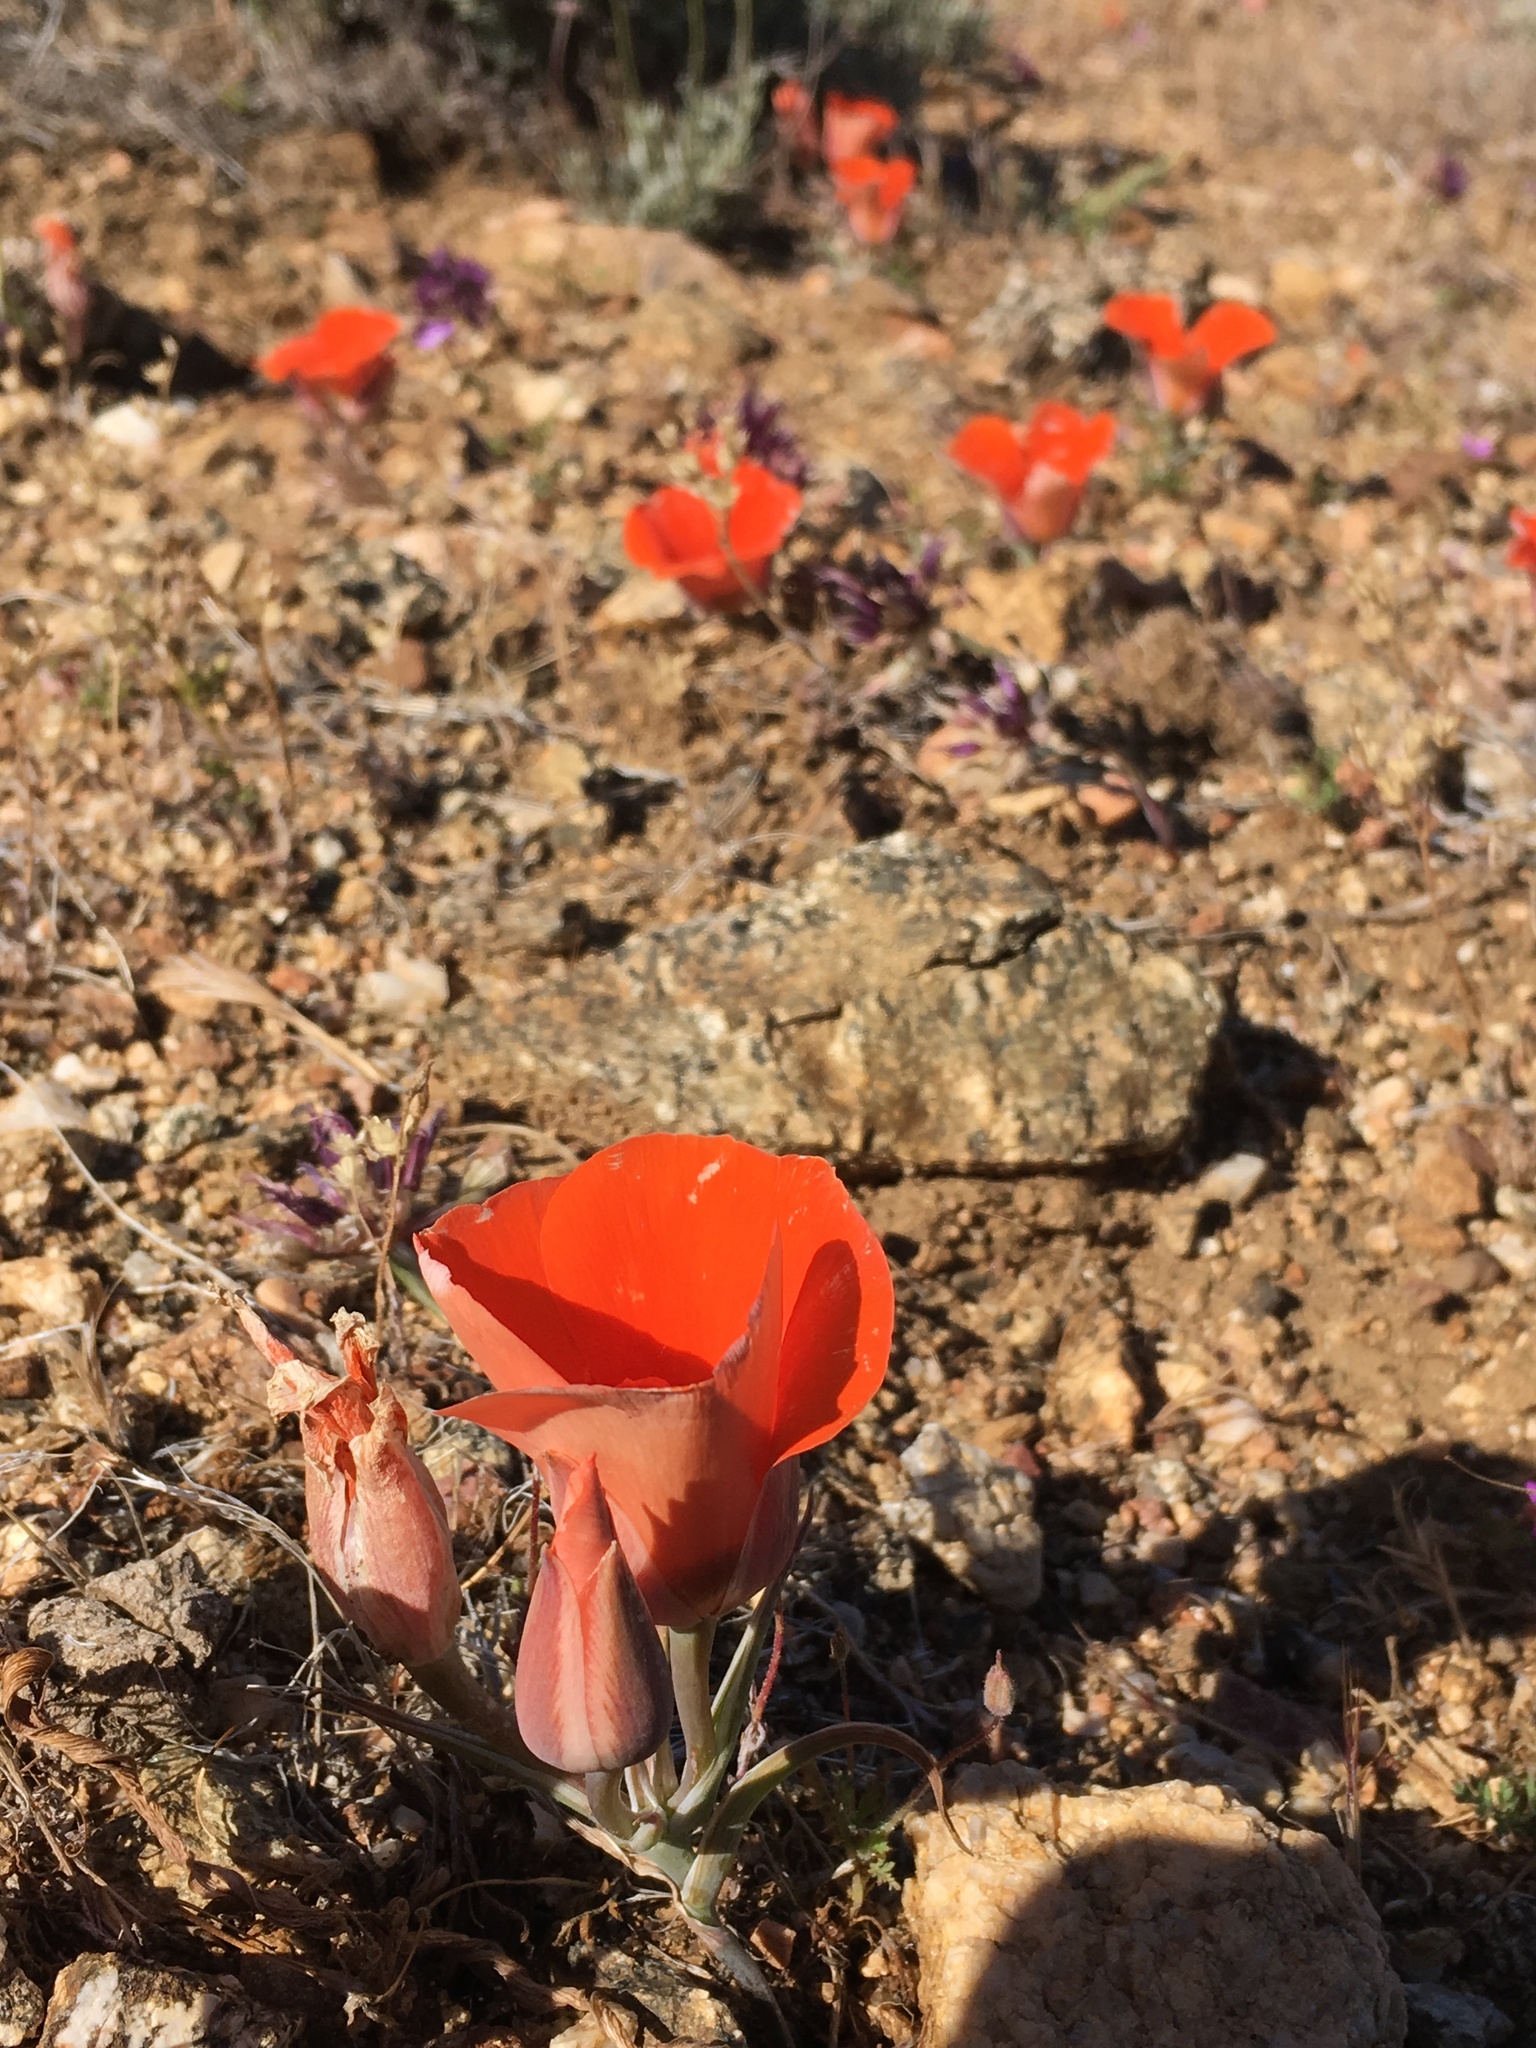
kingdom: Plantae
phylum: Tracheophyta
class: Liliopsida
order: Liliales
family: Liliaceae
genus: Calochortus
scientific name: Calochortus kennedyi
